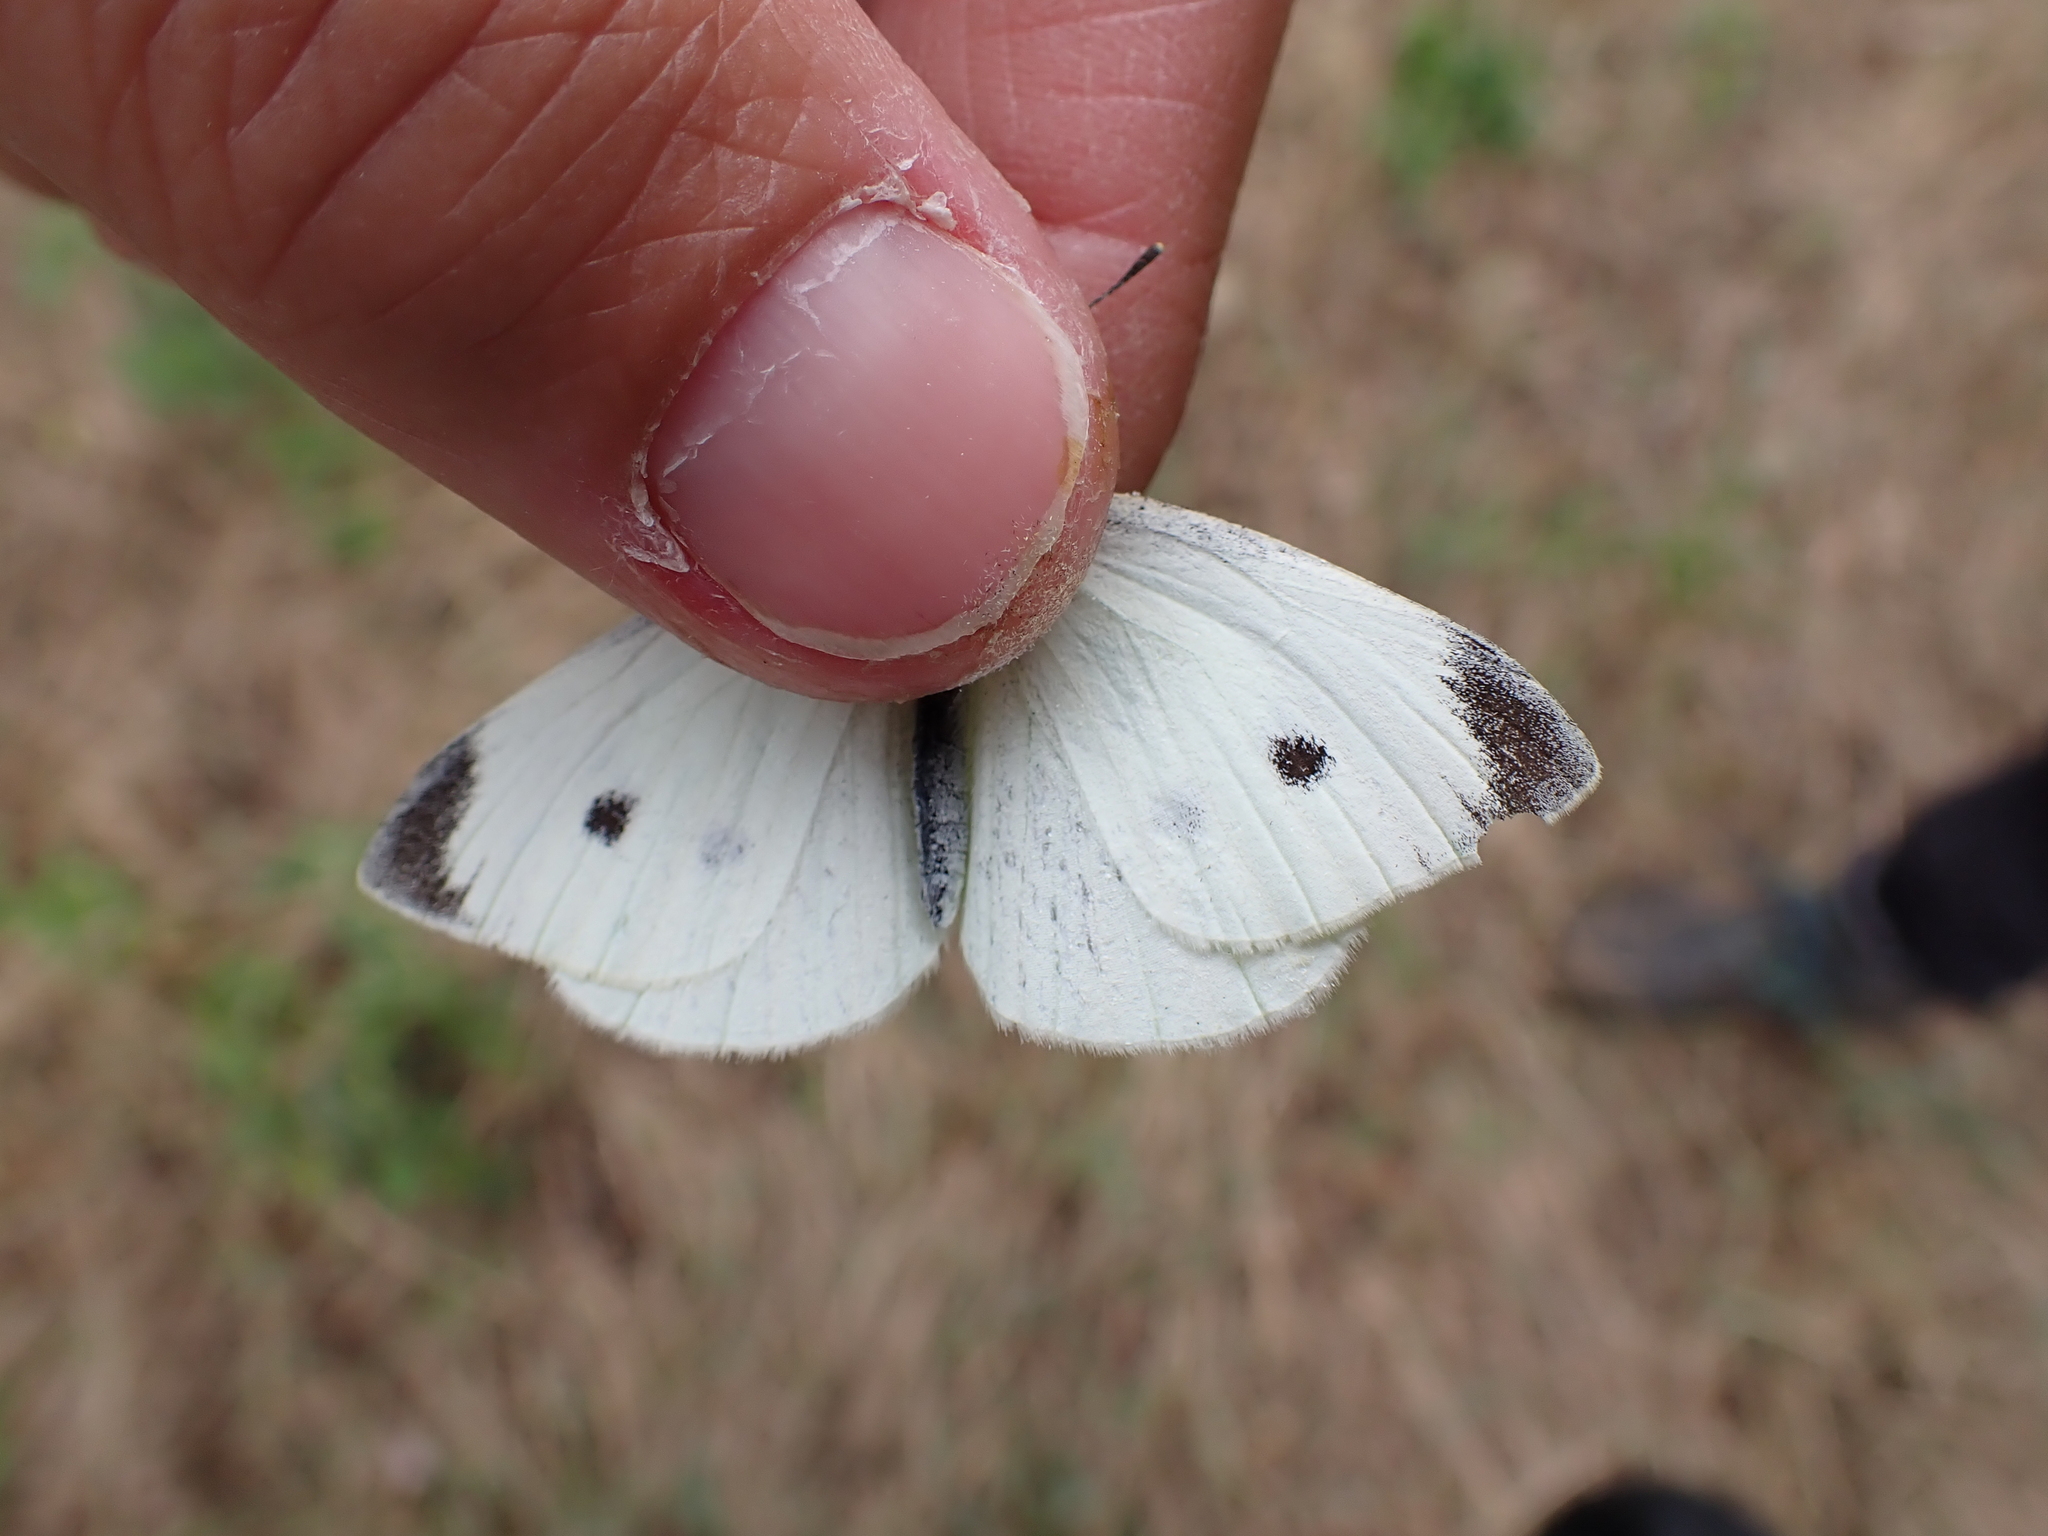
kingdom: Animalia
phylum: Arthropoda
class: Insecta
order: Lepidoptera
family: Pieridae
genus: Pieris
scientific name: Pieris rapae
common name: Small white
